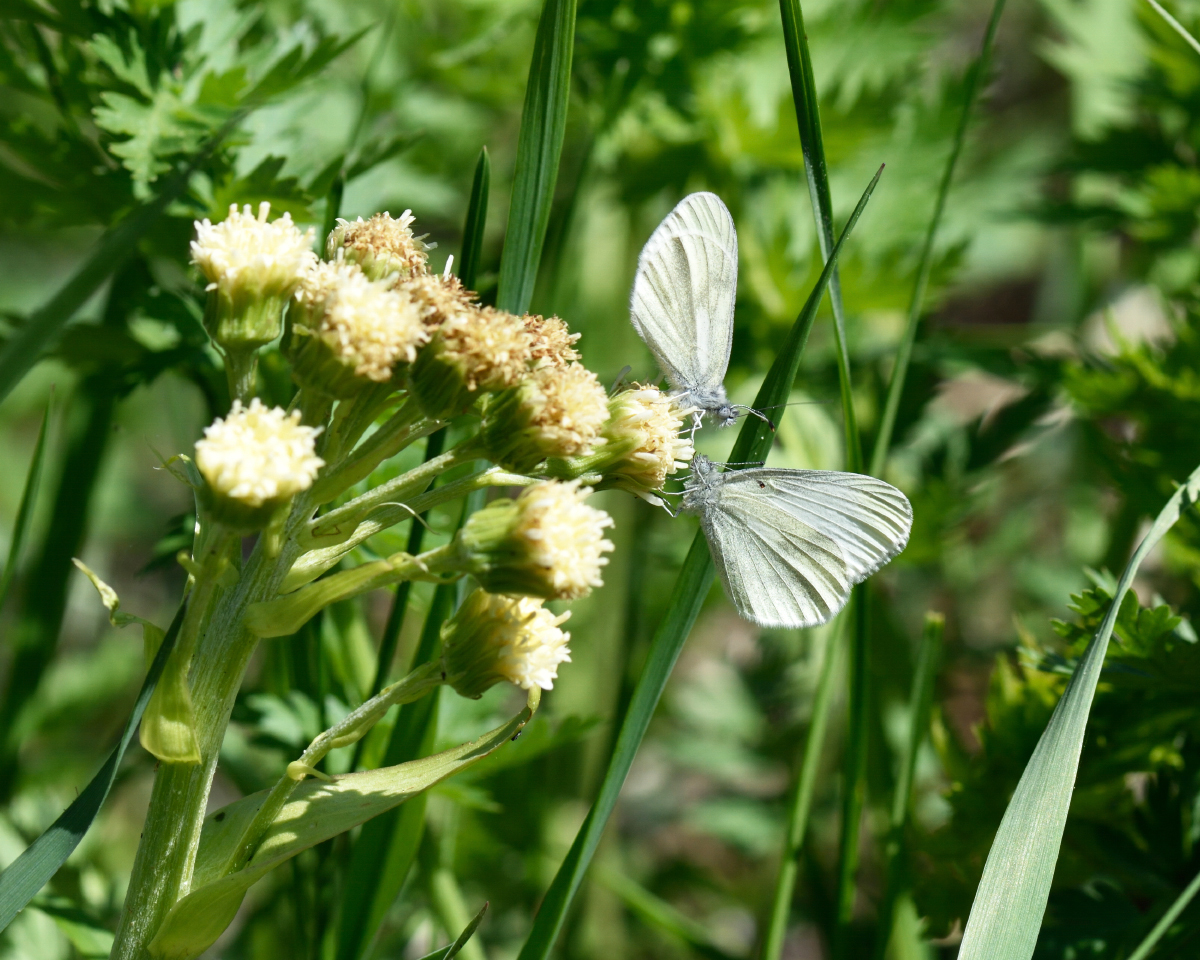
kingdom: Animalia
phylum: Arthropoda
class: Insecta
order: Lepidoptera
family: Pieridae
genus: Leptidea
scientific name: Leptidea
